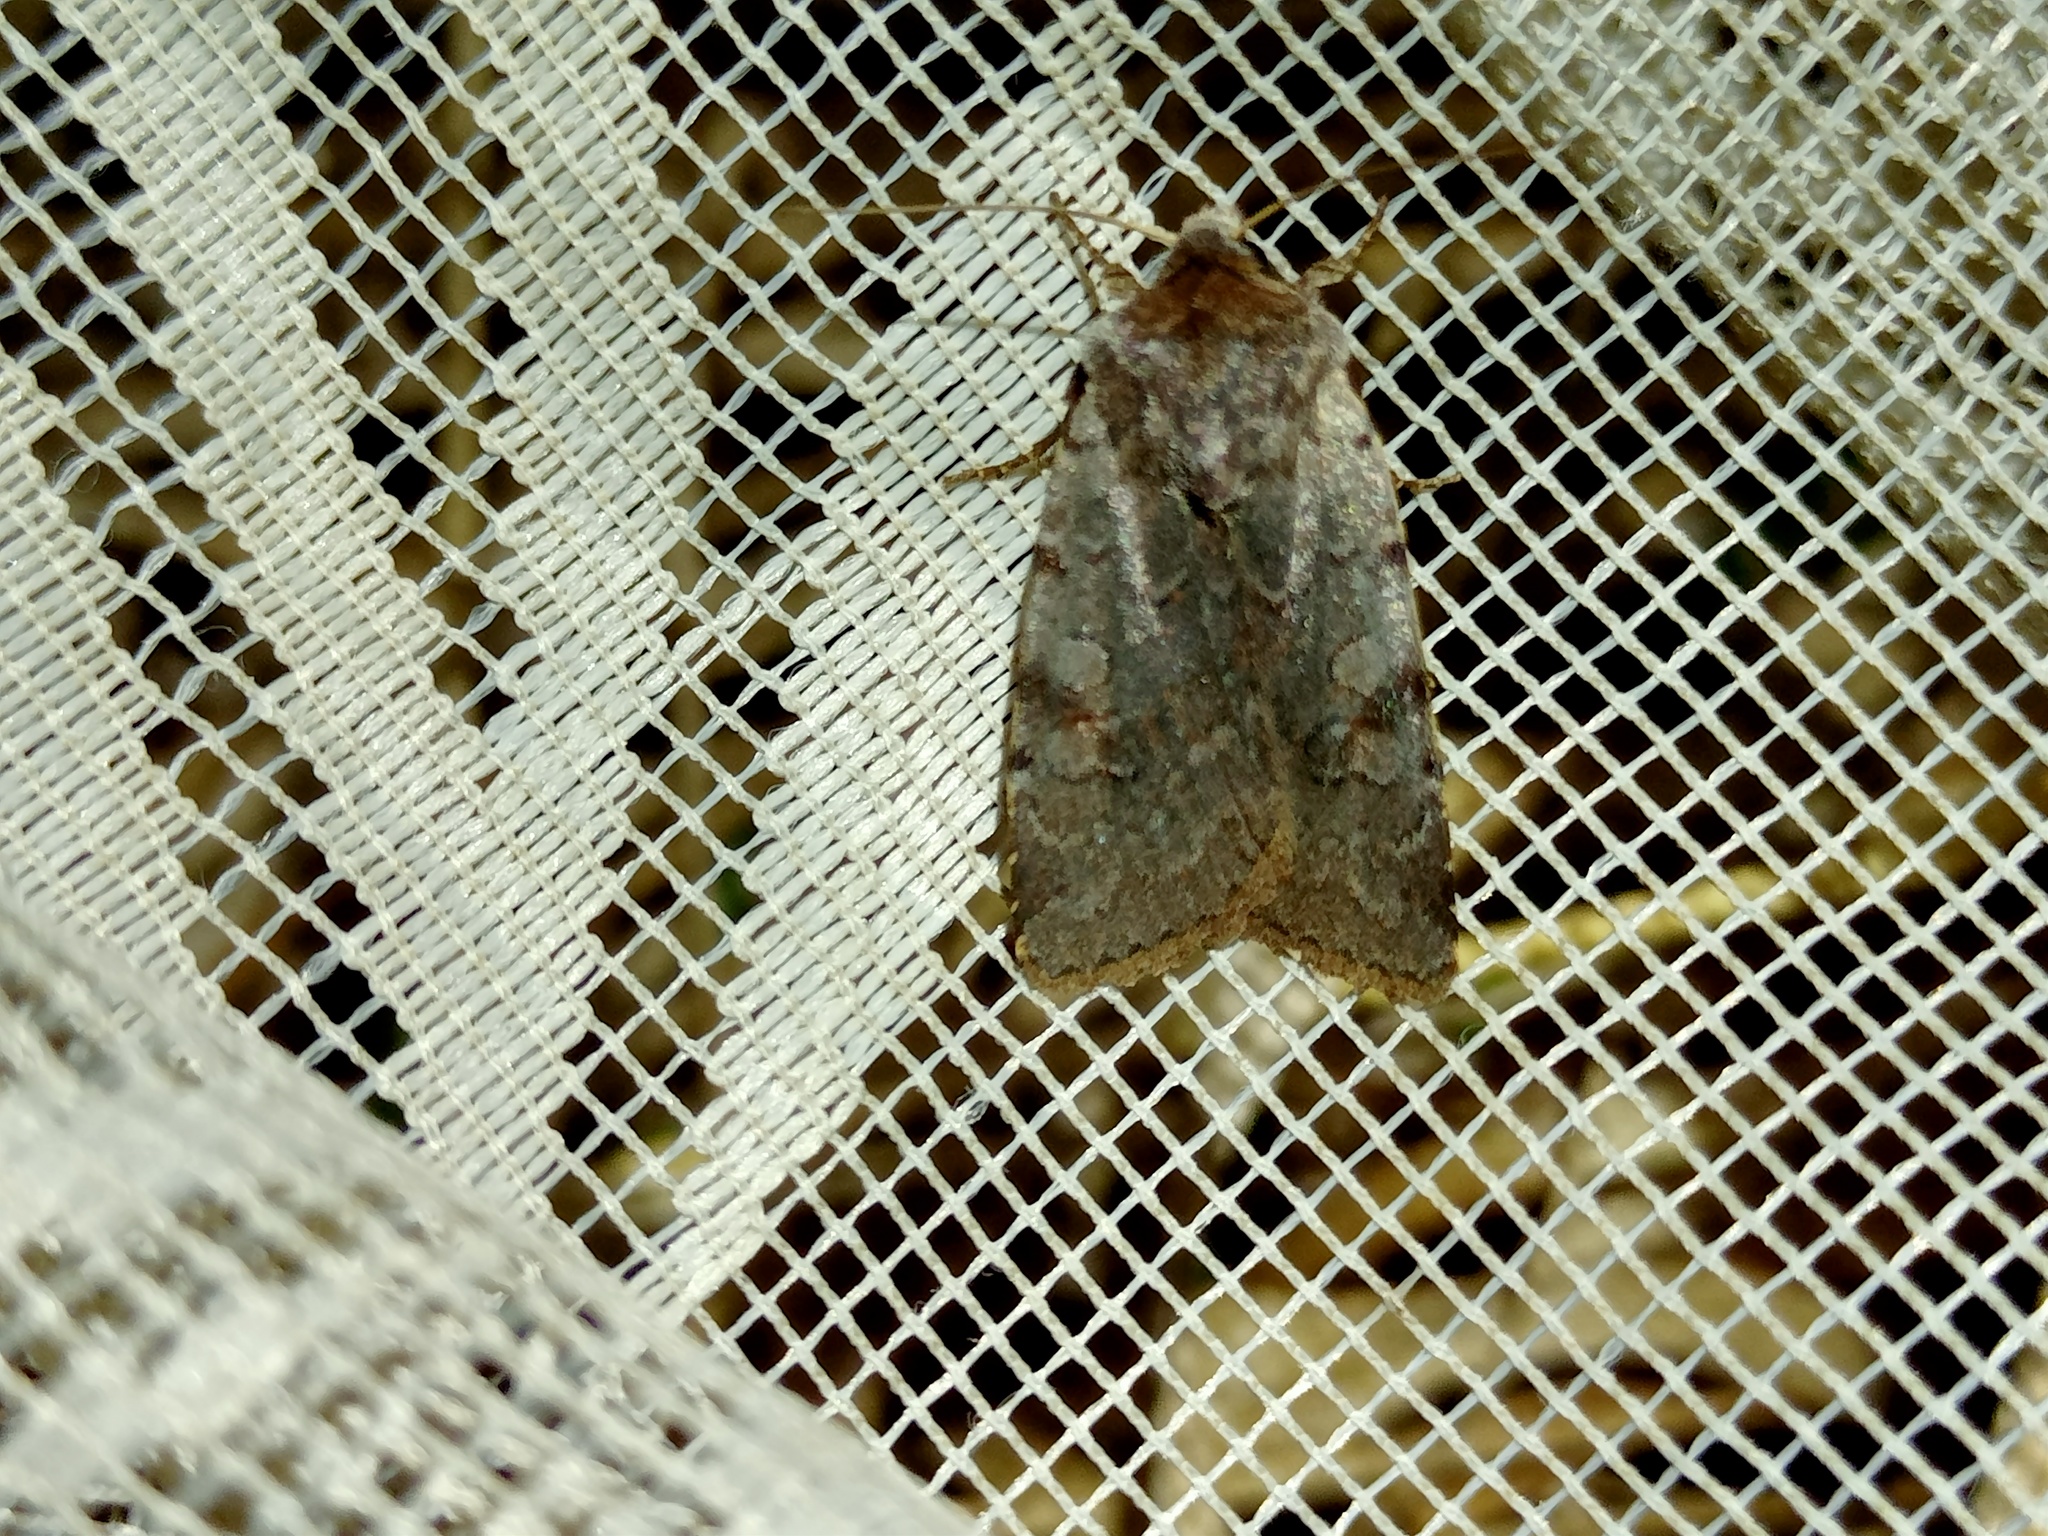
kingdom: Animalia
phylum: Arthropoda
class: Insecta
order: Lepidoptera
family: Noctuidae
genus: Cerastis
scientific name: Cerastis rubricosa
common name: Red chestnut
